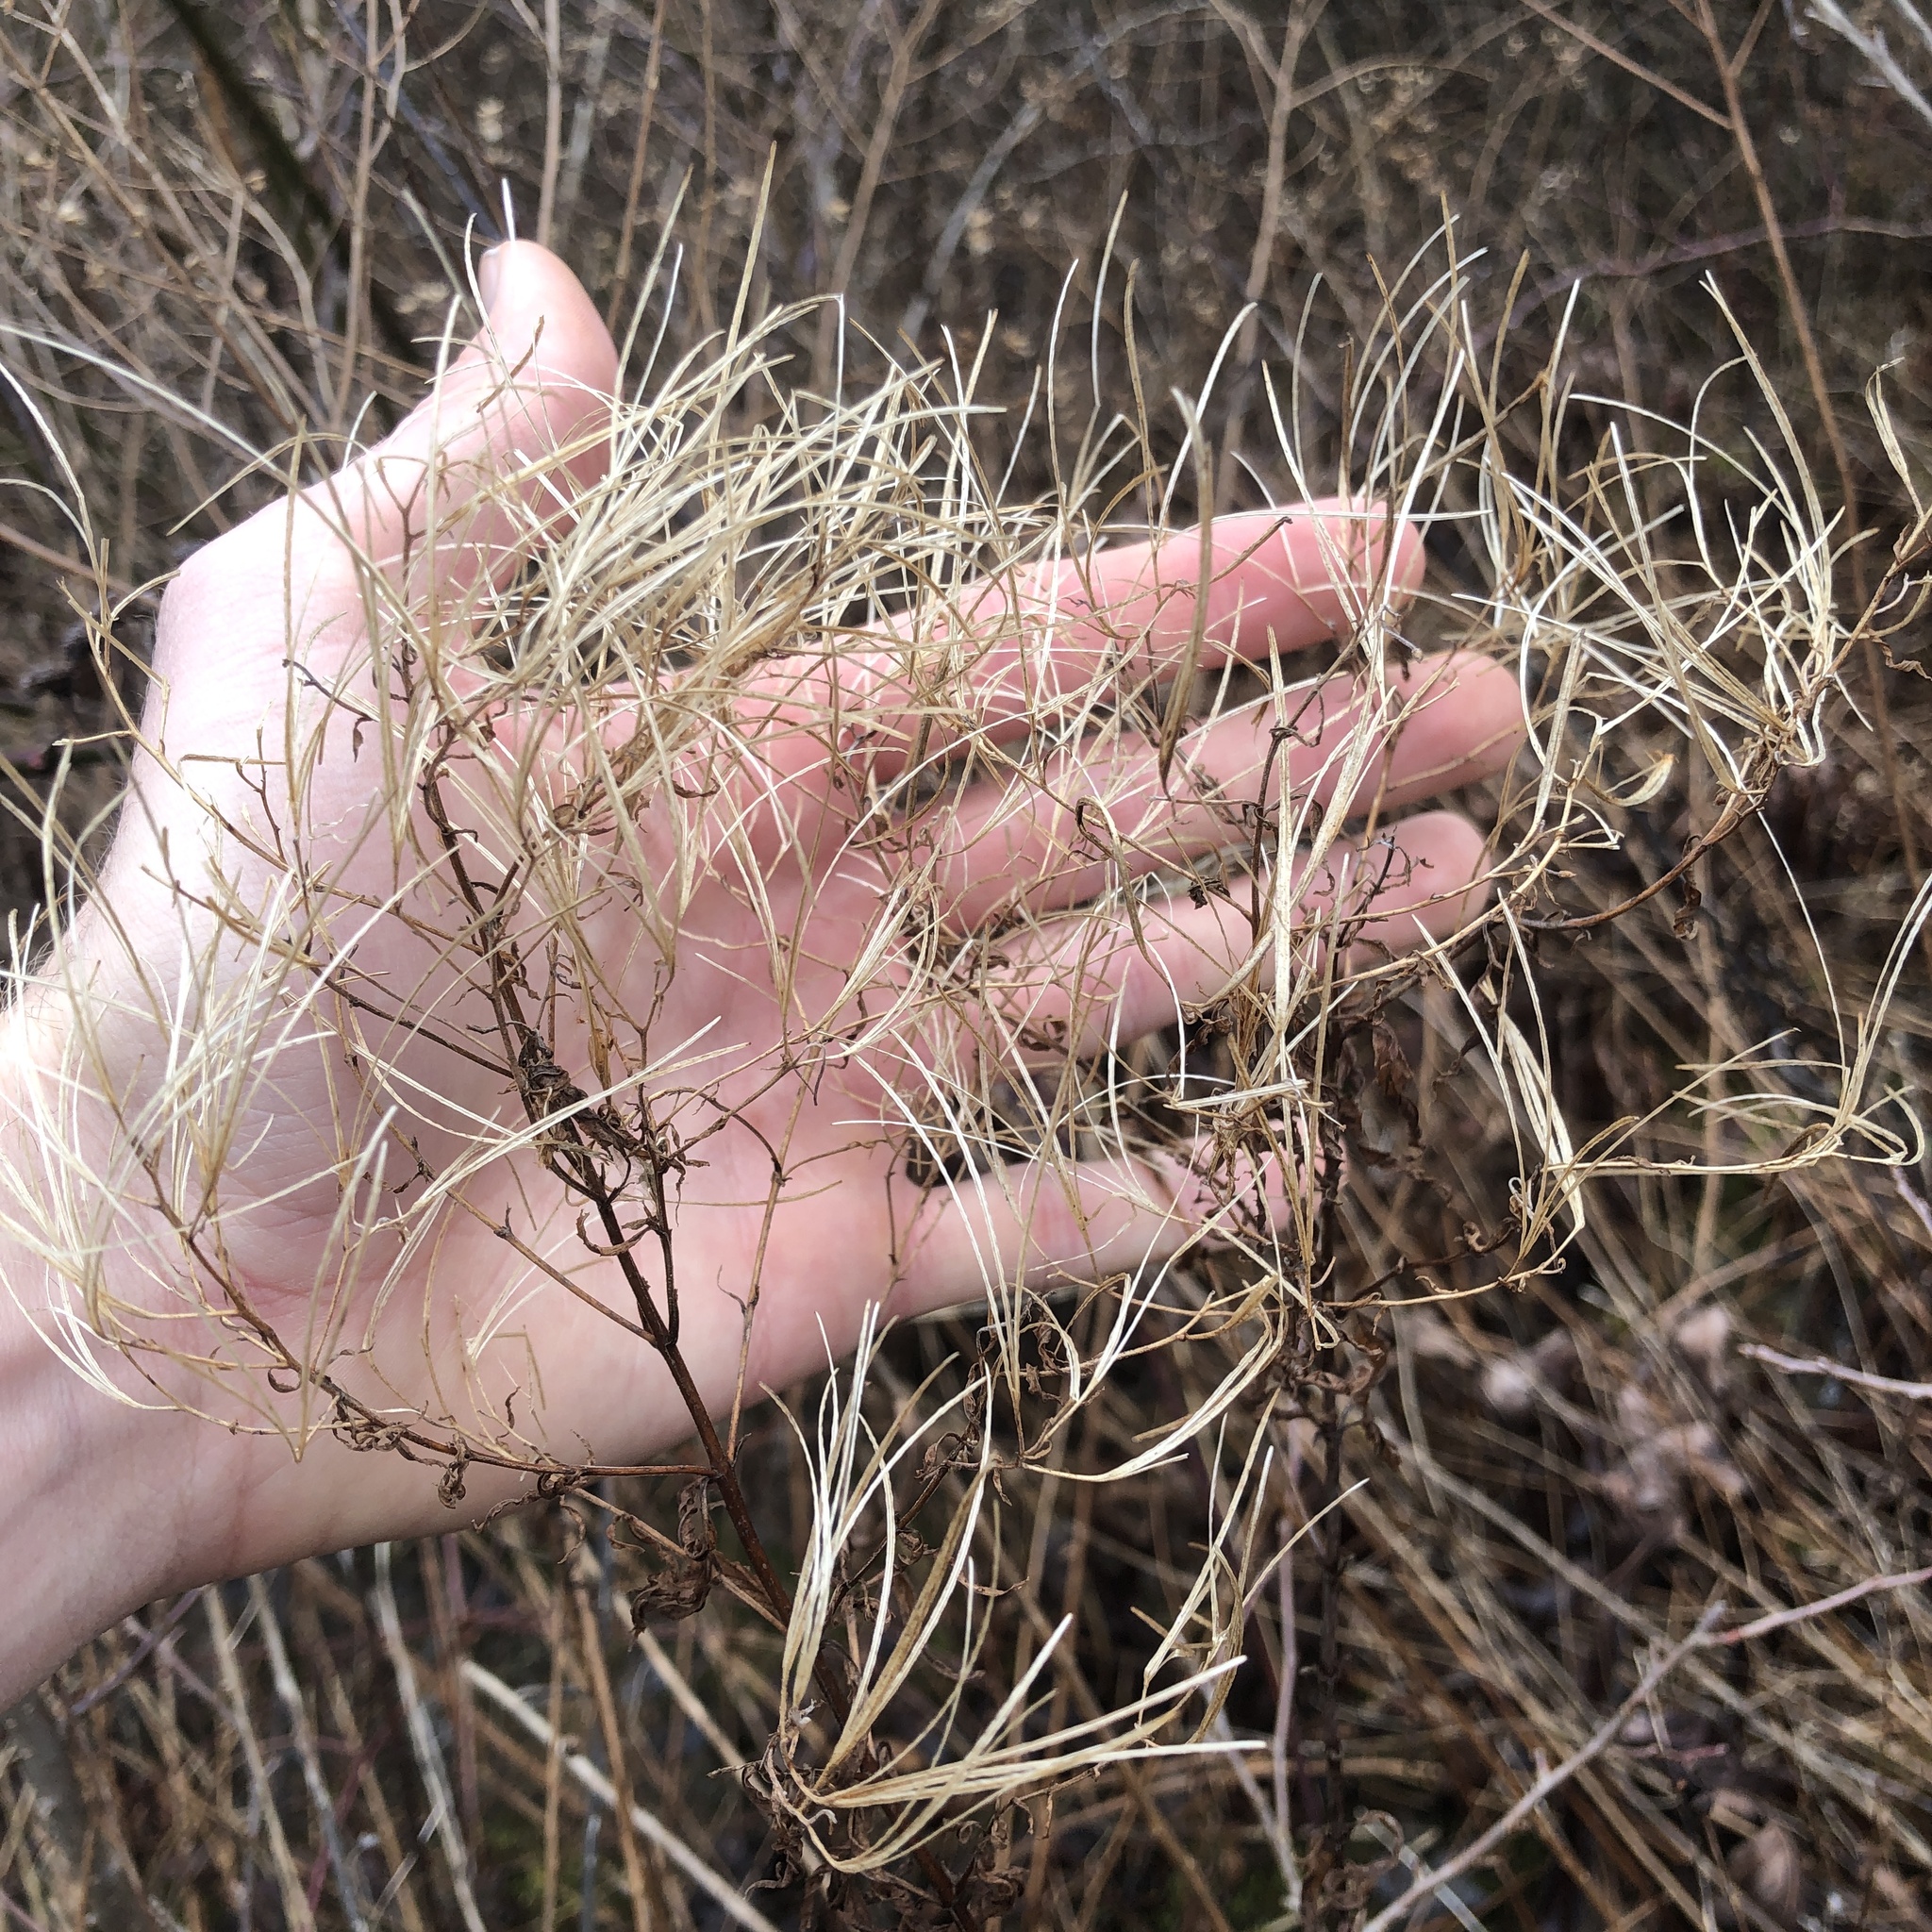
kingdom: Plantae
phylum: Tracheophyta
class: Magnoliopsida
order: Myrtales
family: Onagraceae
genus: Epilobium
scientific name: Epilobium coloratum
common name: Bronze willowherb
